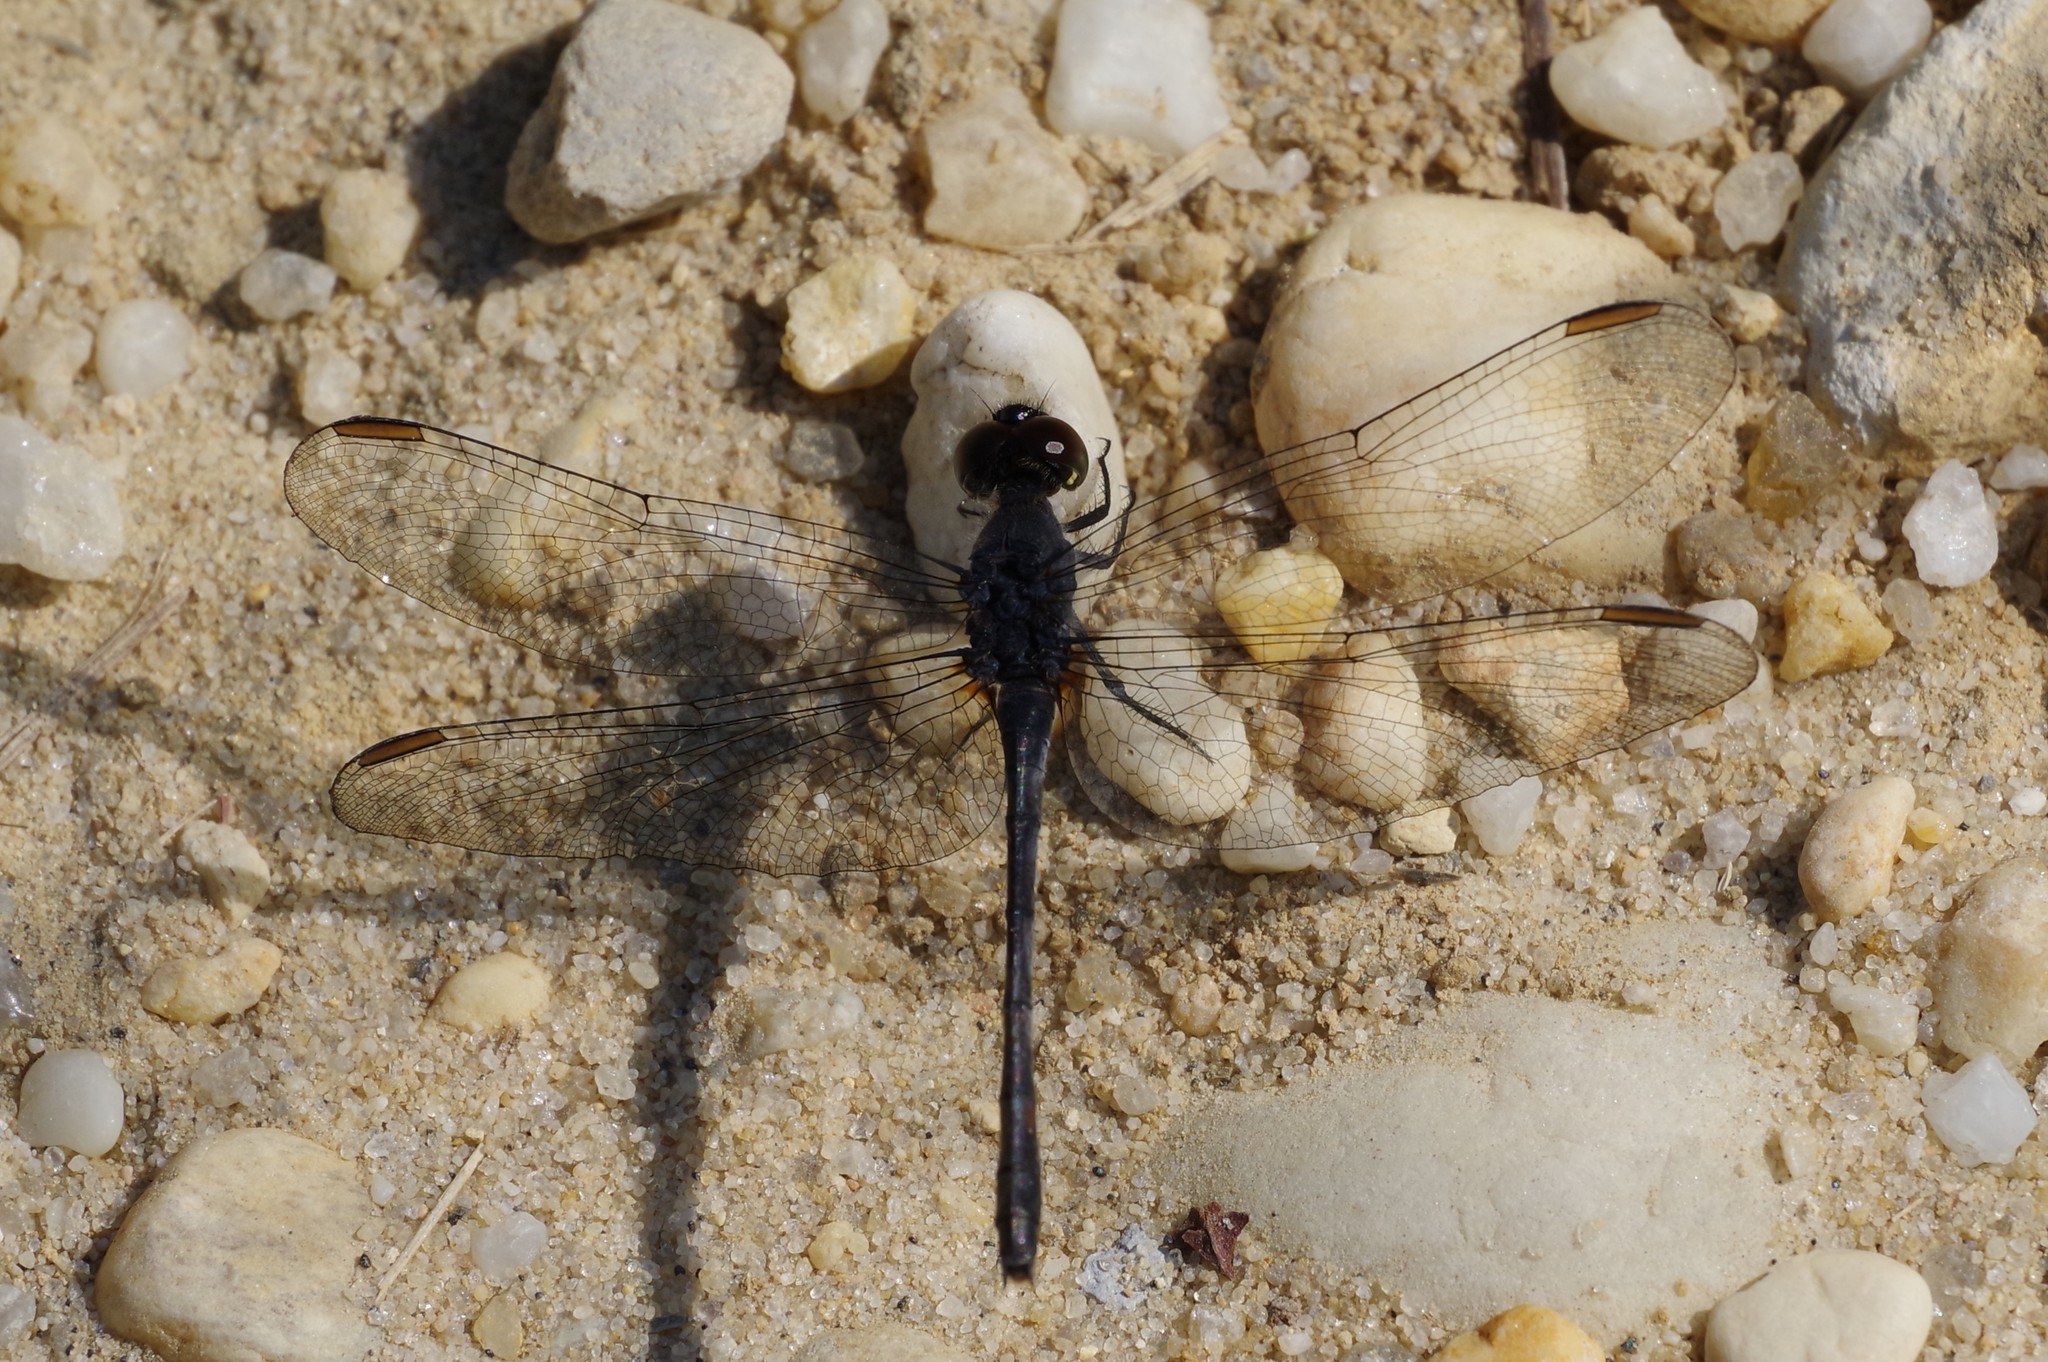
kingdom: Animalia
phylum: Arthropoda
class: Insecta
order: Odonata
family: Libellulidae
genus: Erythrodiplax
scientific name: Erythrodiplax berenice
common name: Seaside dragonlet
